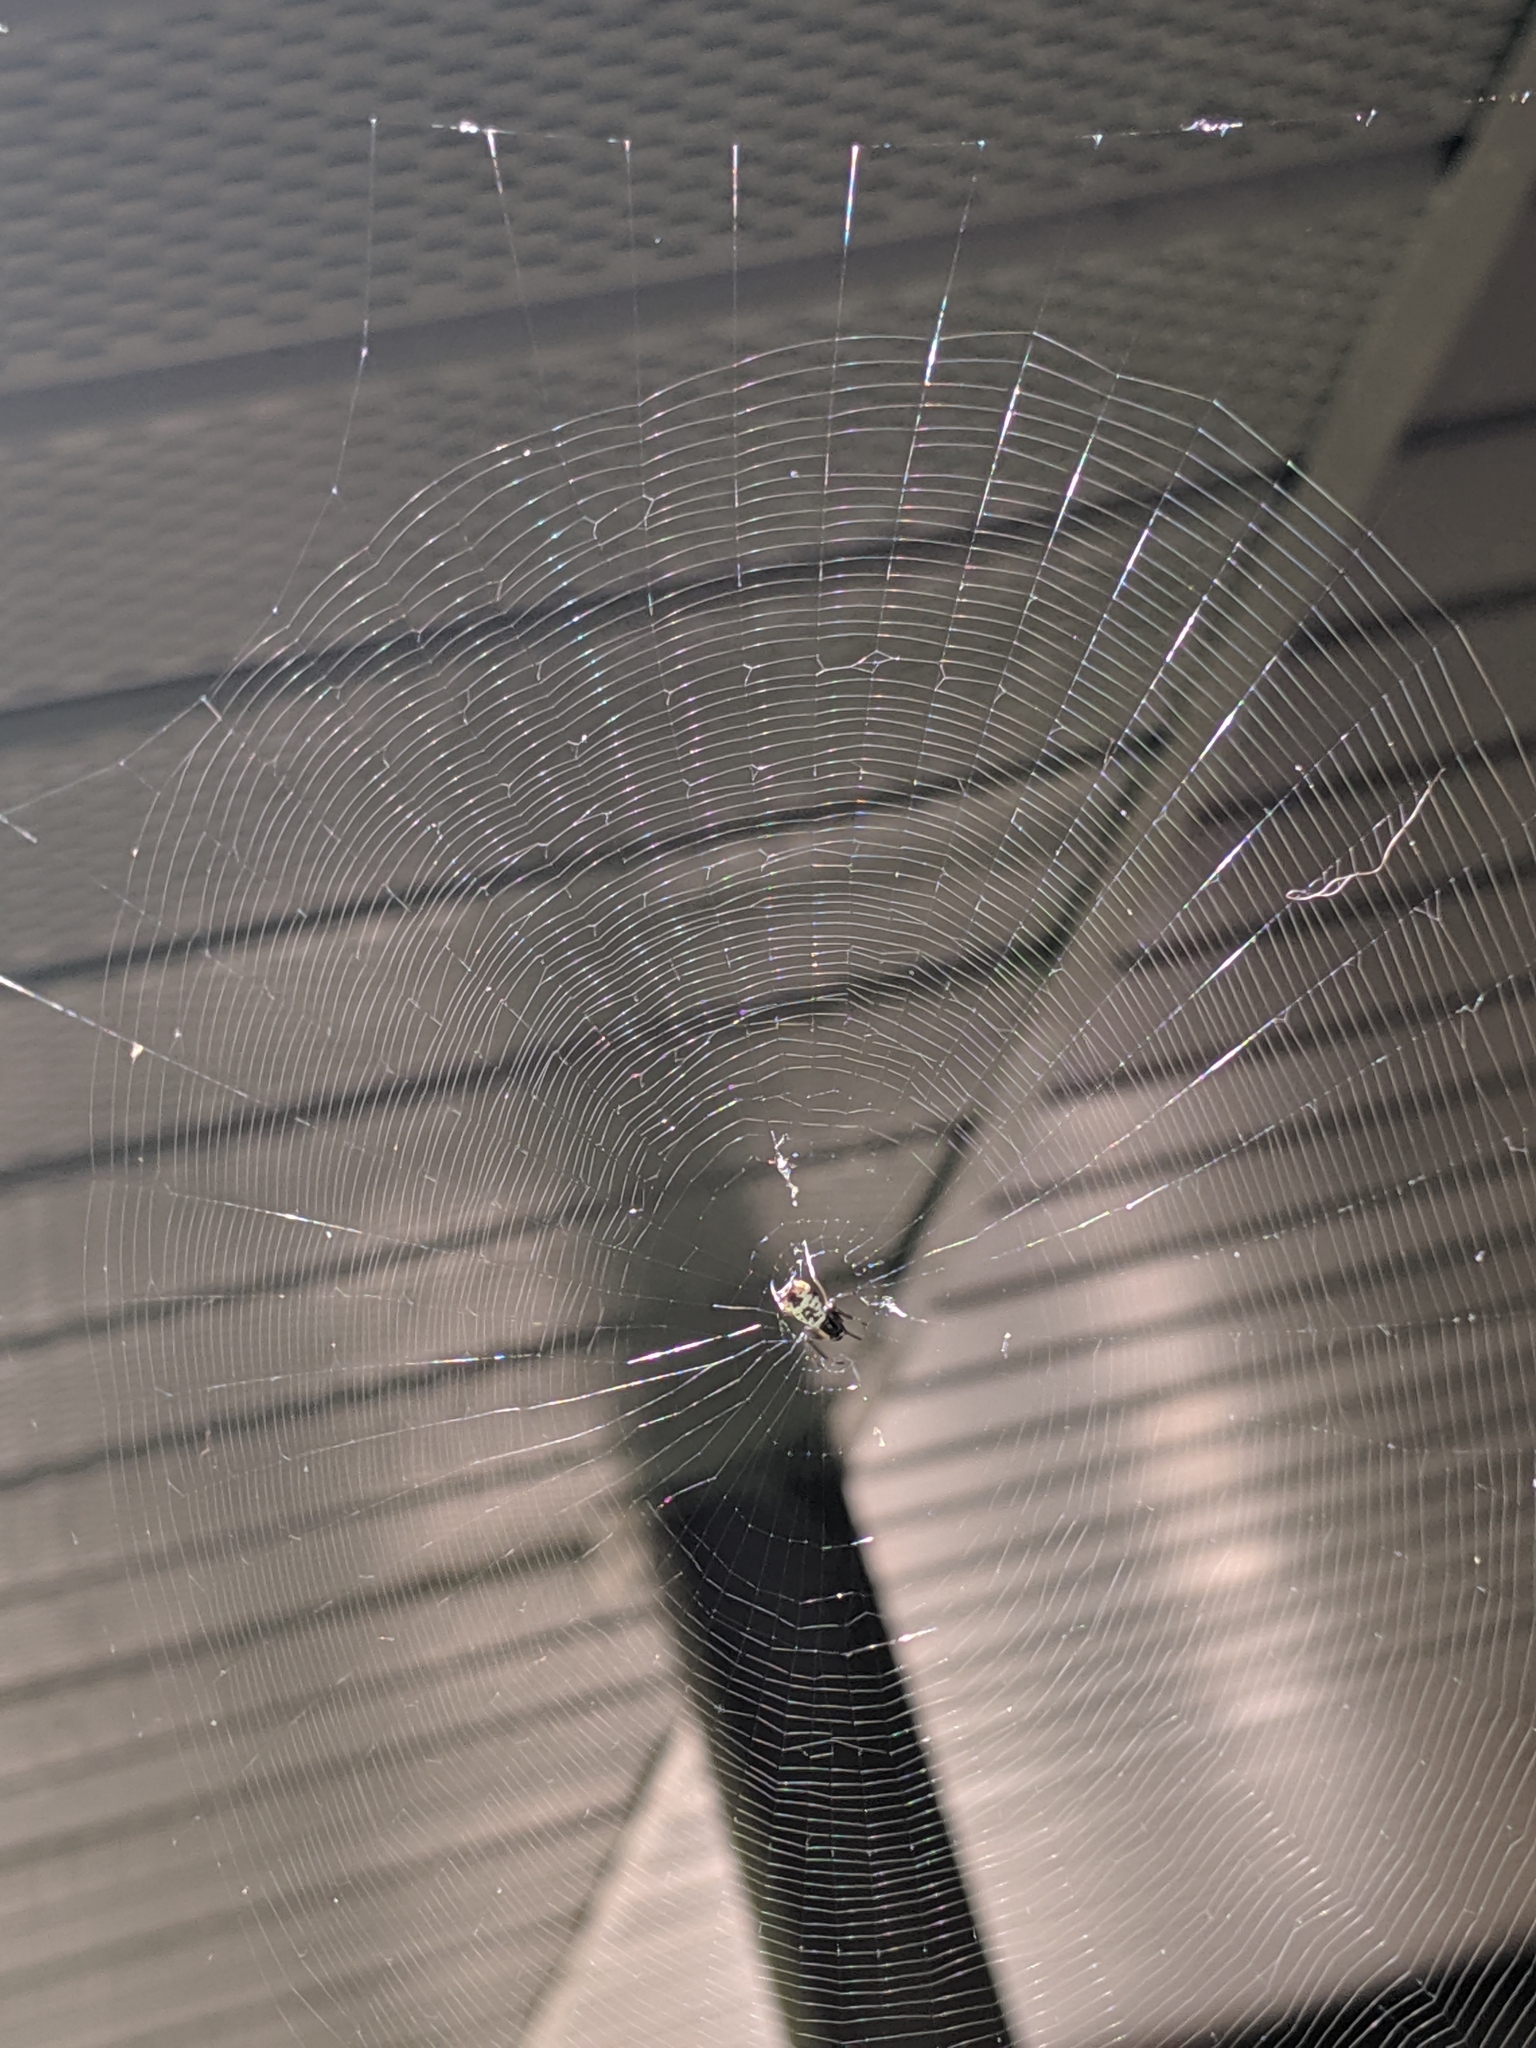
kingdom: Animalia
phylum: Arthropoda
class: Arachnida
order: Araneae
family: Araneidae
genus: Micrathena
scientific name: Micrathena mitrata
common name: Orb weavers
